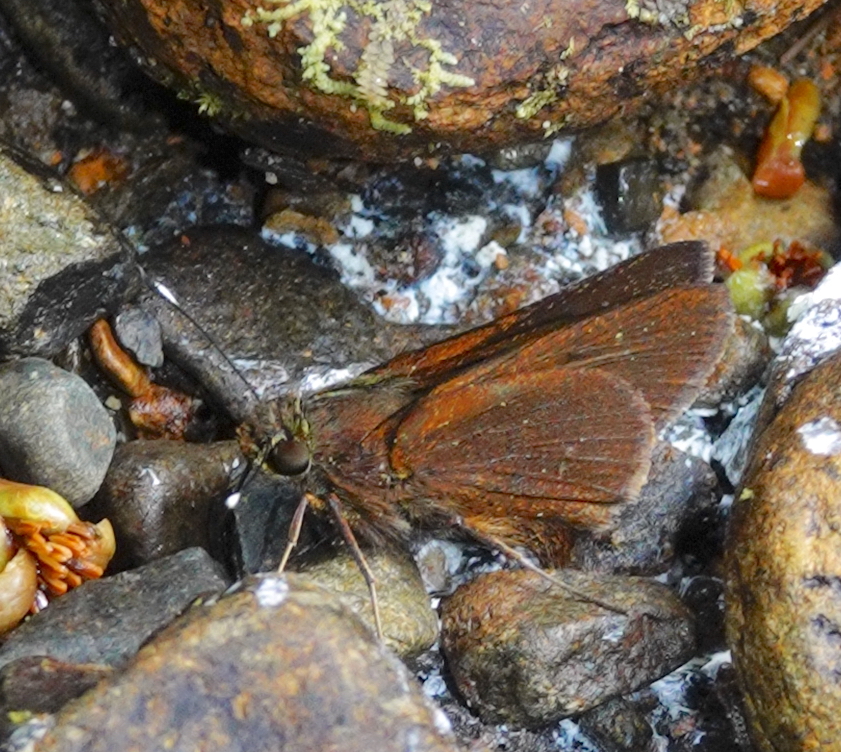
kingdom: Animalia
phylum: Arthropoda
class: Insecta
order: Lepidoptera
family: Hesperiidae
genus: Decinea
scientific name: Decinea neroides
